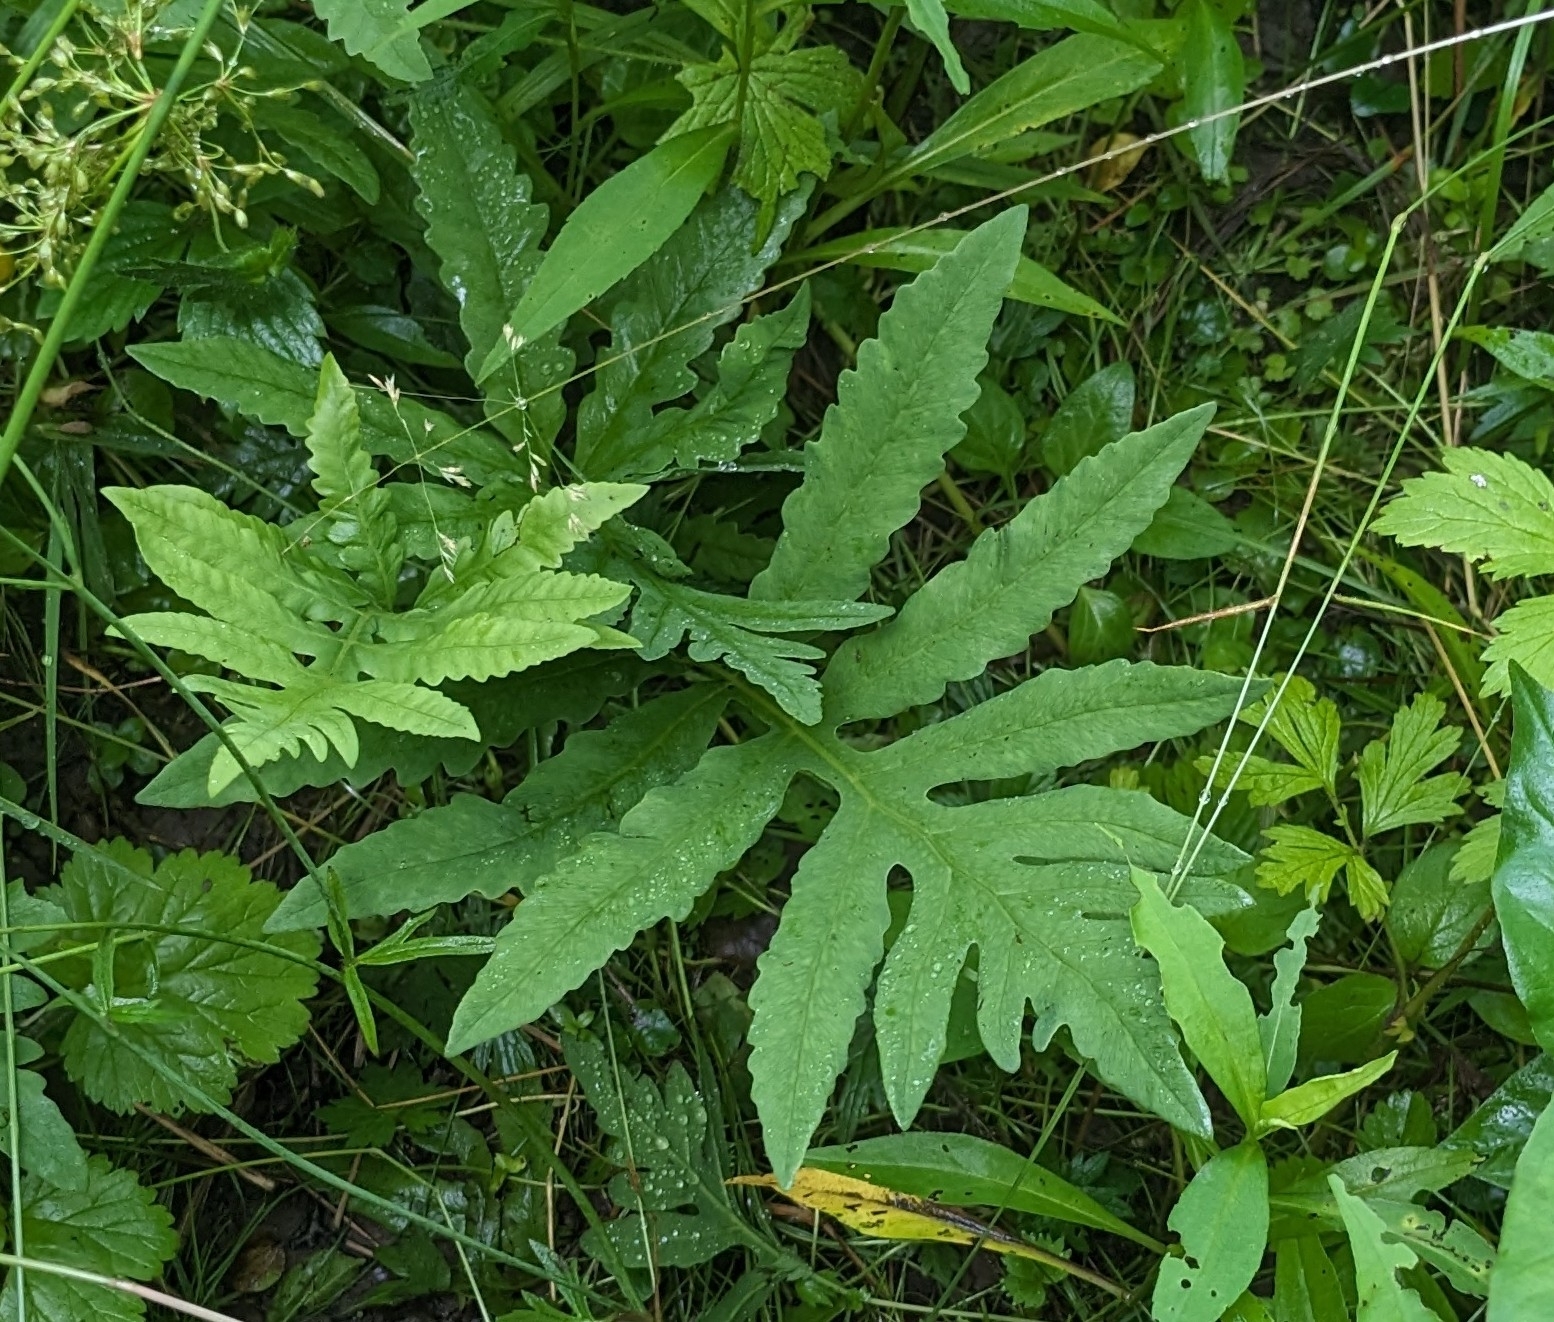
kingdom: Plantae
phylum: Tracheophyta
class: Polypodiopsida
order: Polypodiales
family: Onocleaceae
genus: Onoclea
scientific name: Onoclea sensibilis
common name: Sensitive fern
